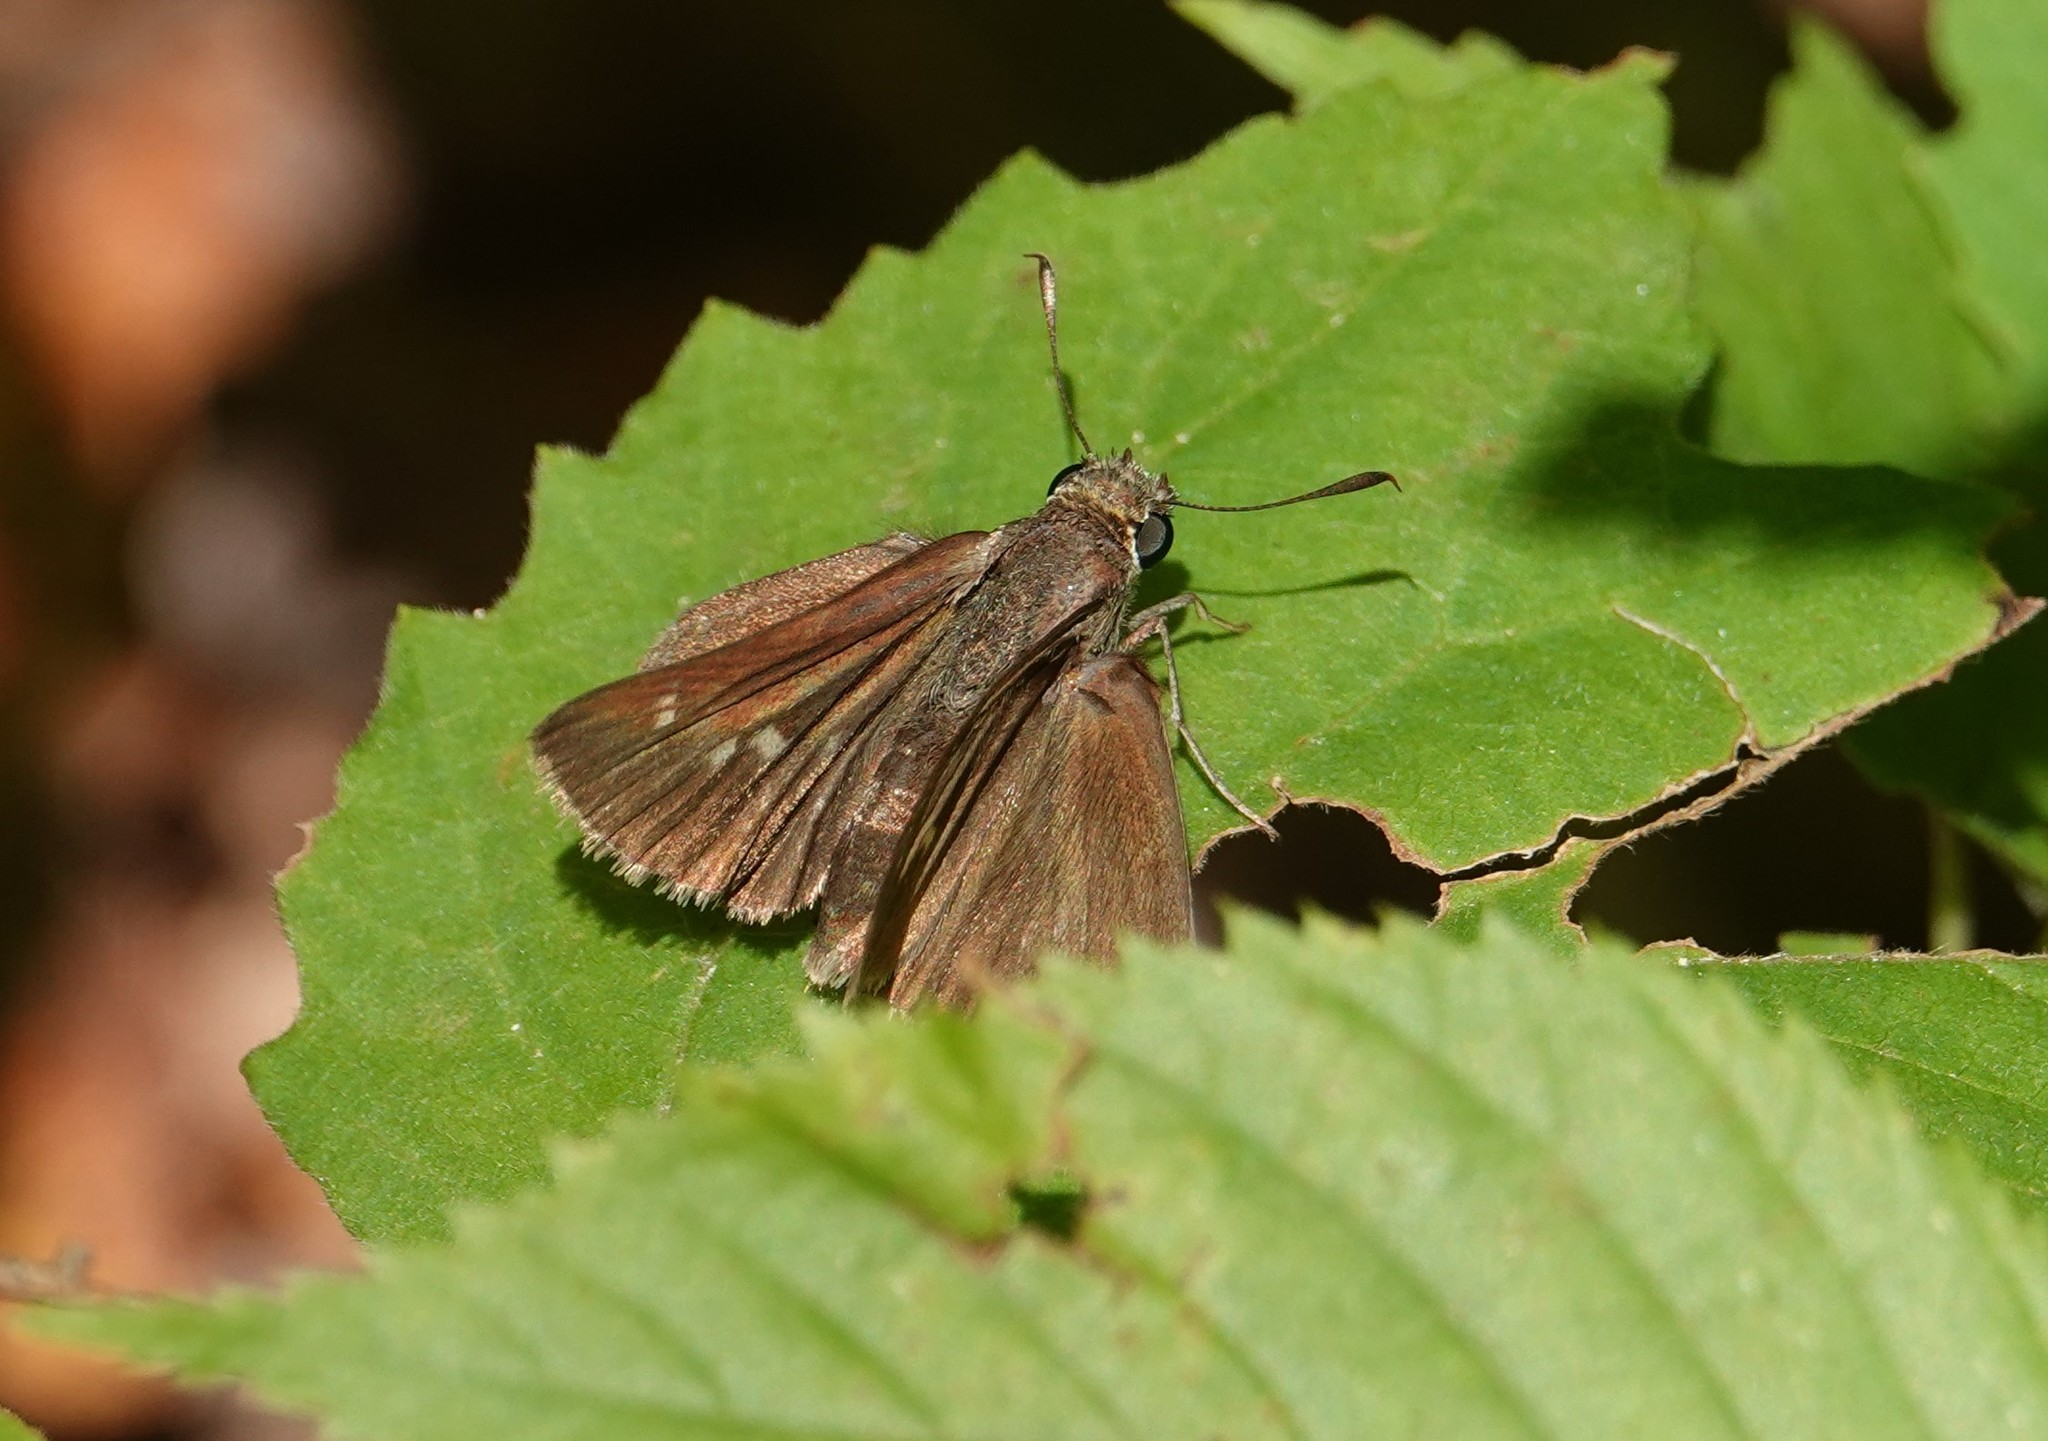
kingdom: Animalia
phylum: Arthropoda
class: Insecta
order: Lepidoptera
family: Hesperiidae
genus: Euphyes
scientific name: Euphyes vestris
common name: Dun skipper
